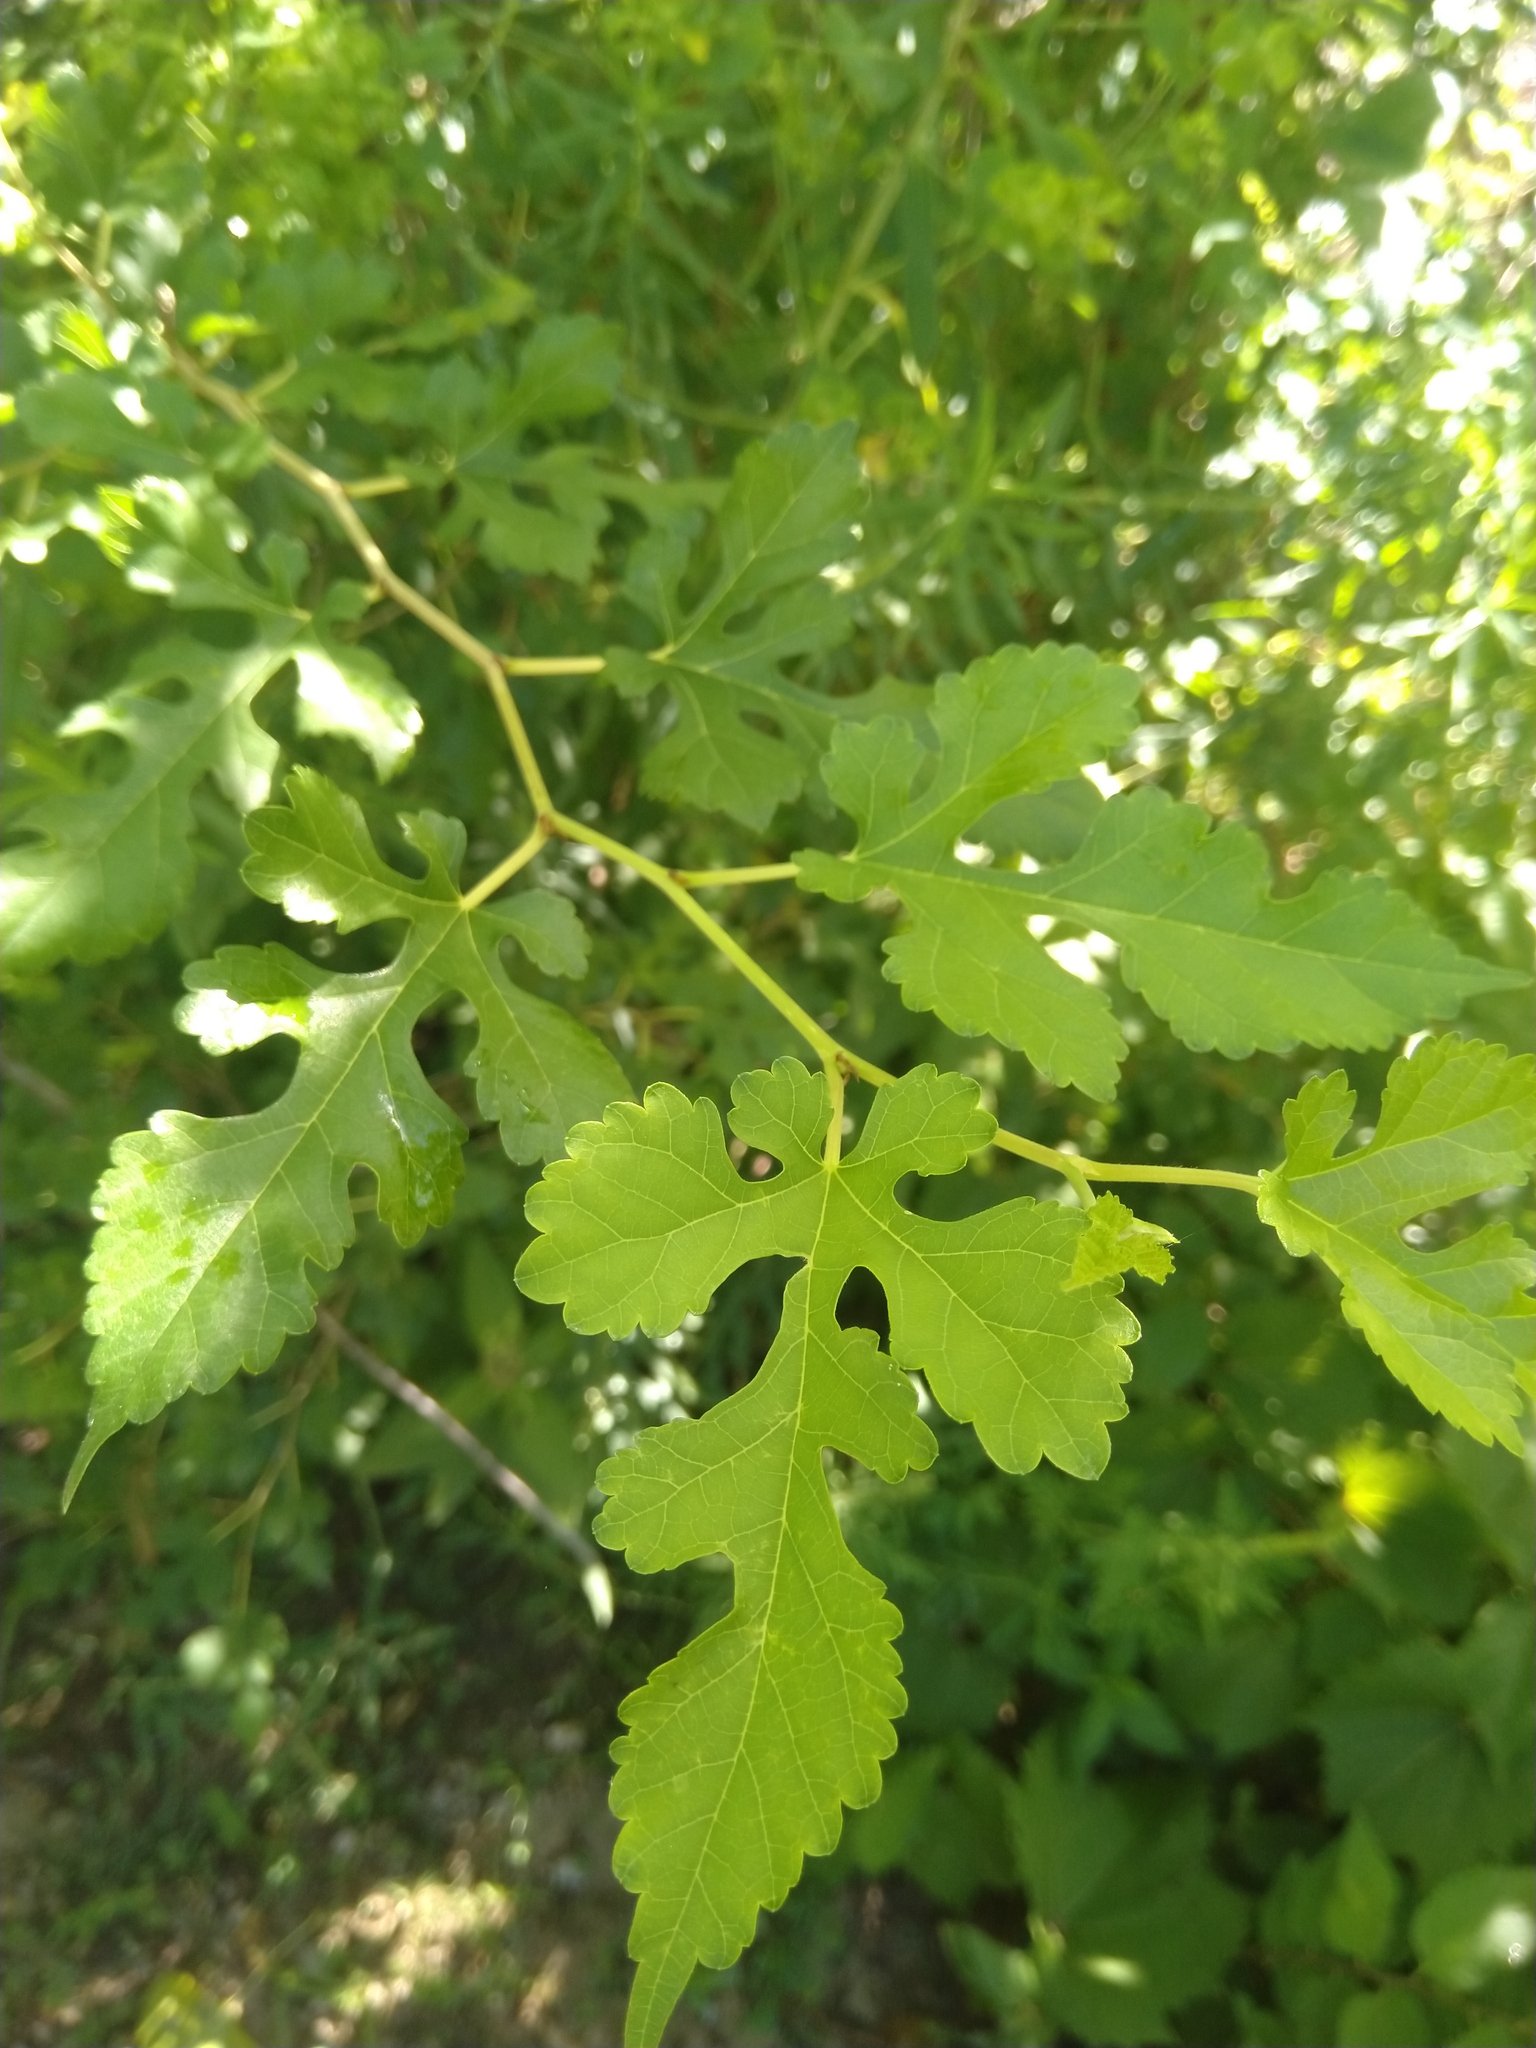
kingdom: Plantae
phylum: Tracheophyta
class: Magnoliopsida
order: Rosales
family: Moraceae
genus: Morus
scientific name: Morus alba
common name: White mulberry
